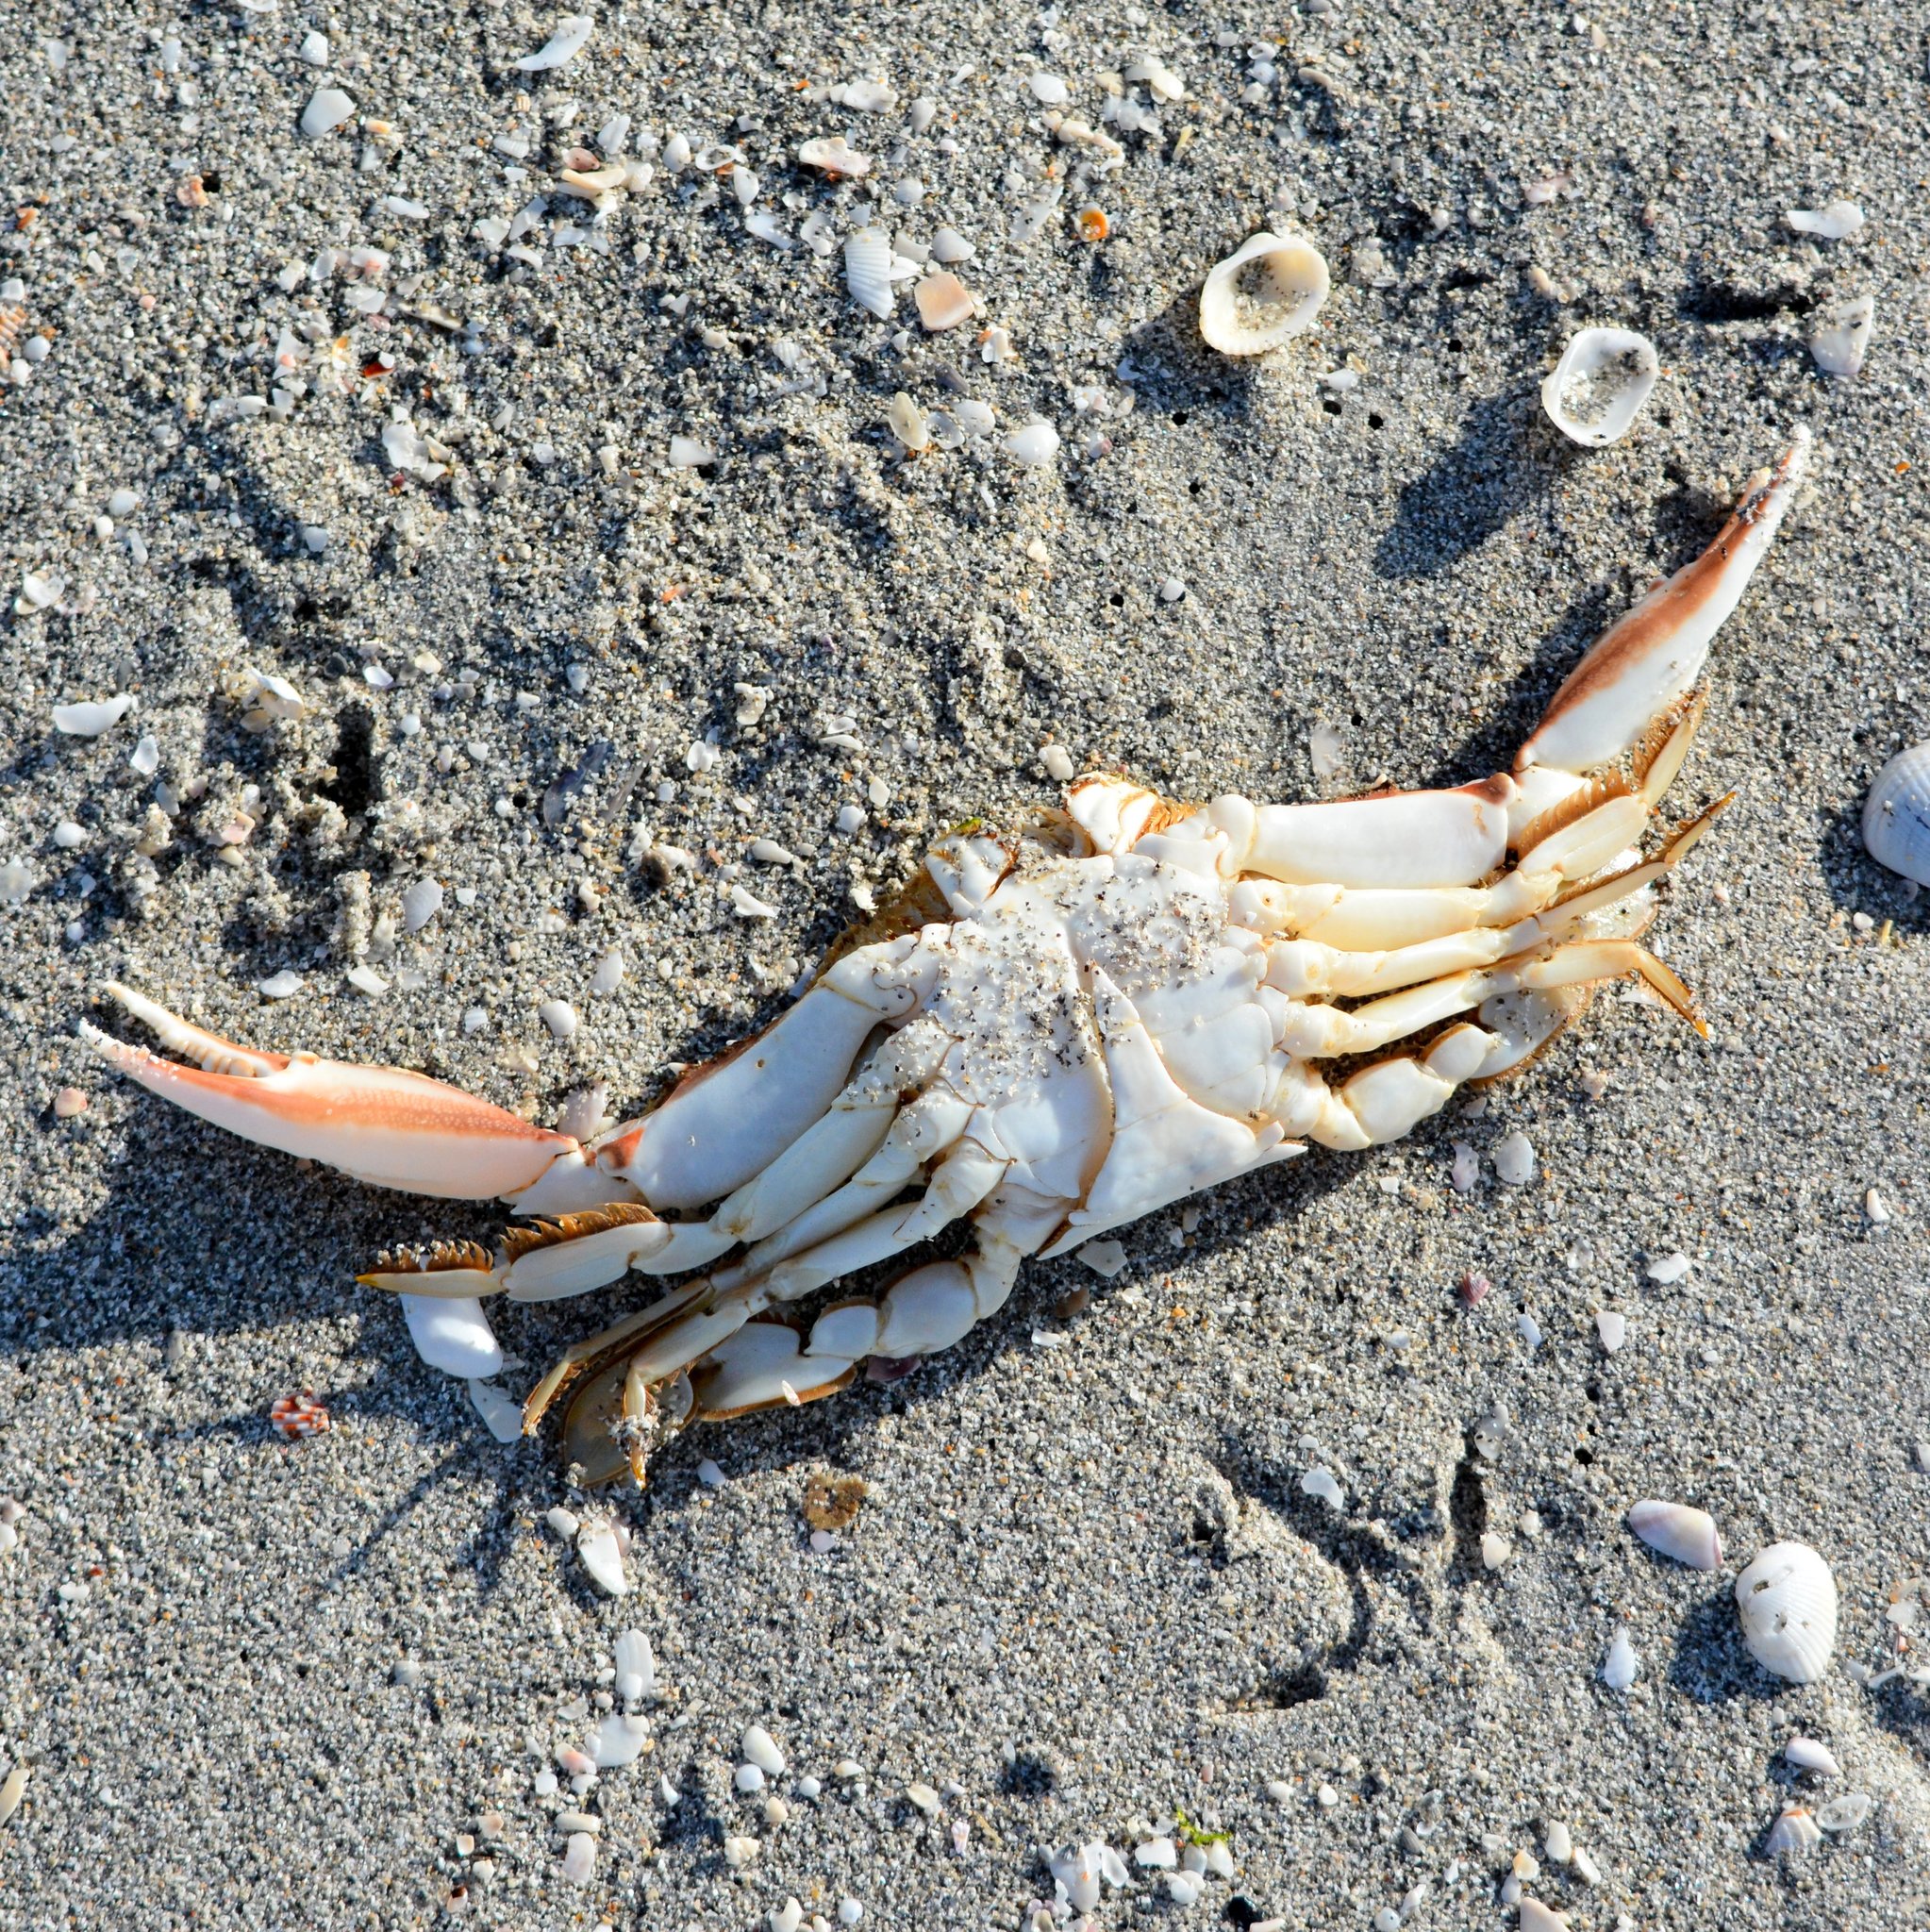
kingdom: Animalia
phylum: Arthropoda
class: Malacostraca
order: Decapoda
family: Portunidae
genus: Arenaeus
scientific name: Arenaeus cribrarius
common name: Speckled crab
